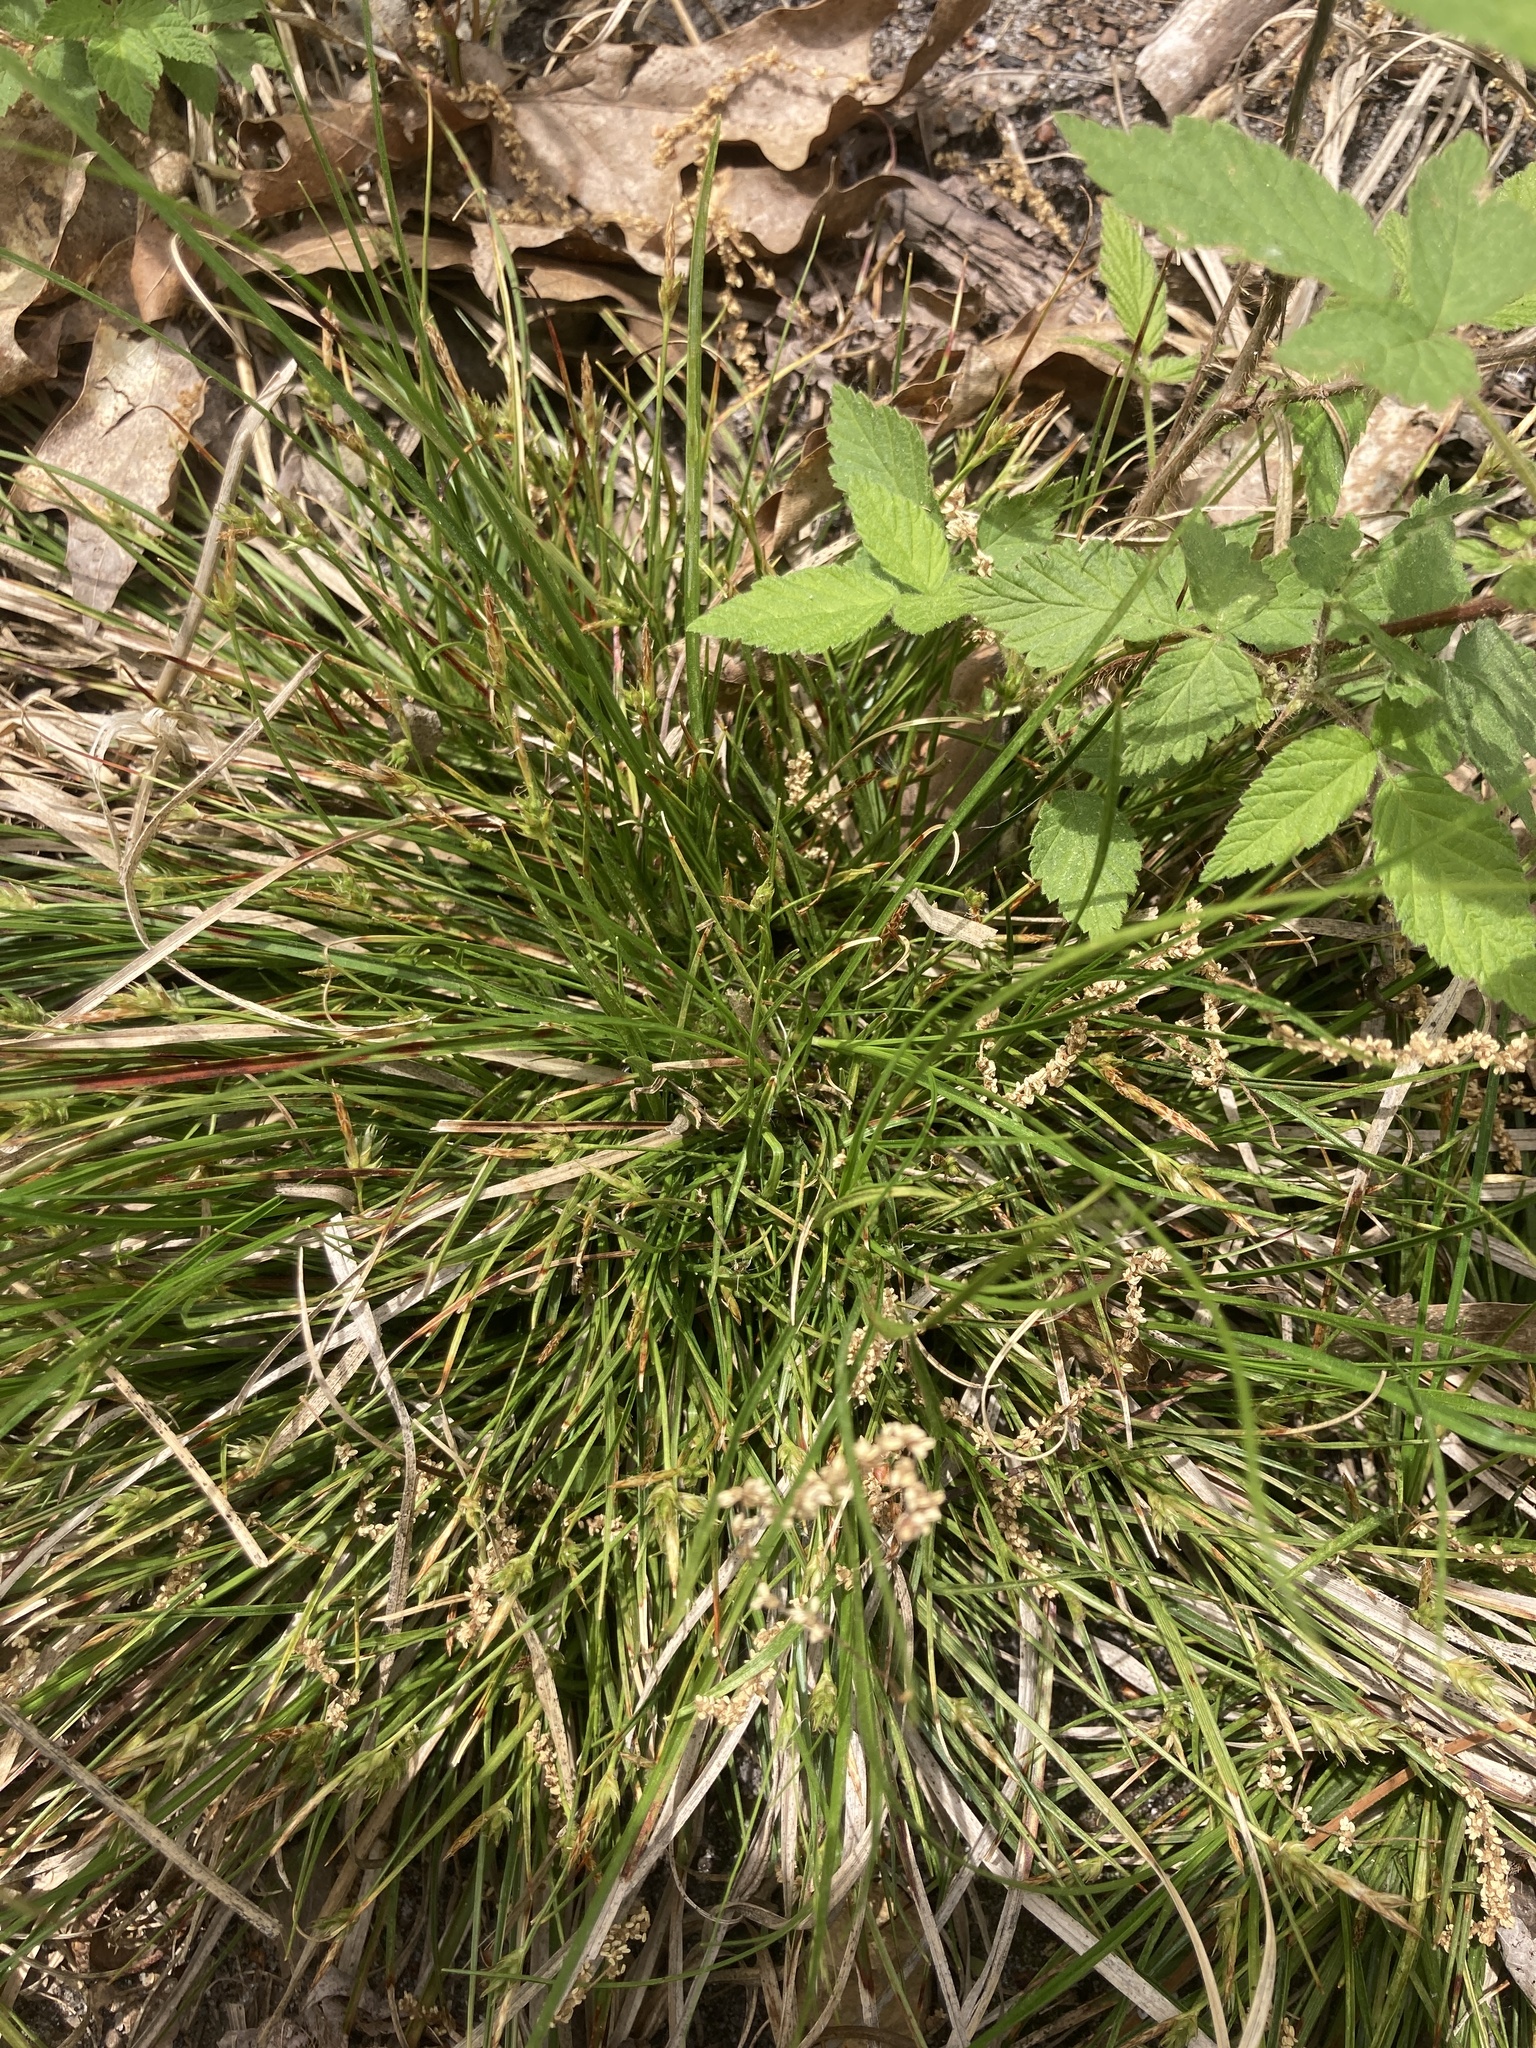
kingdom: Plantae
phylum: Tracheophyta
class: Liliopsida
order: Poales
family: Cyperaceae
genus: Carex
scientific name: Carex tonsa
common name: Bald sedge
